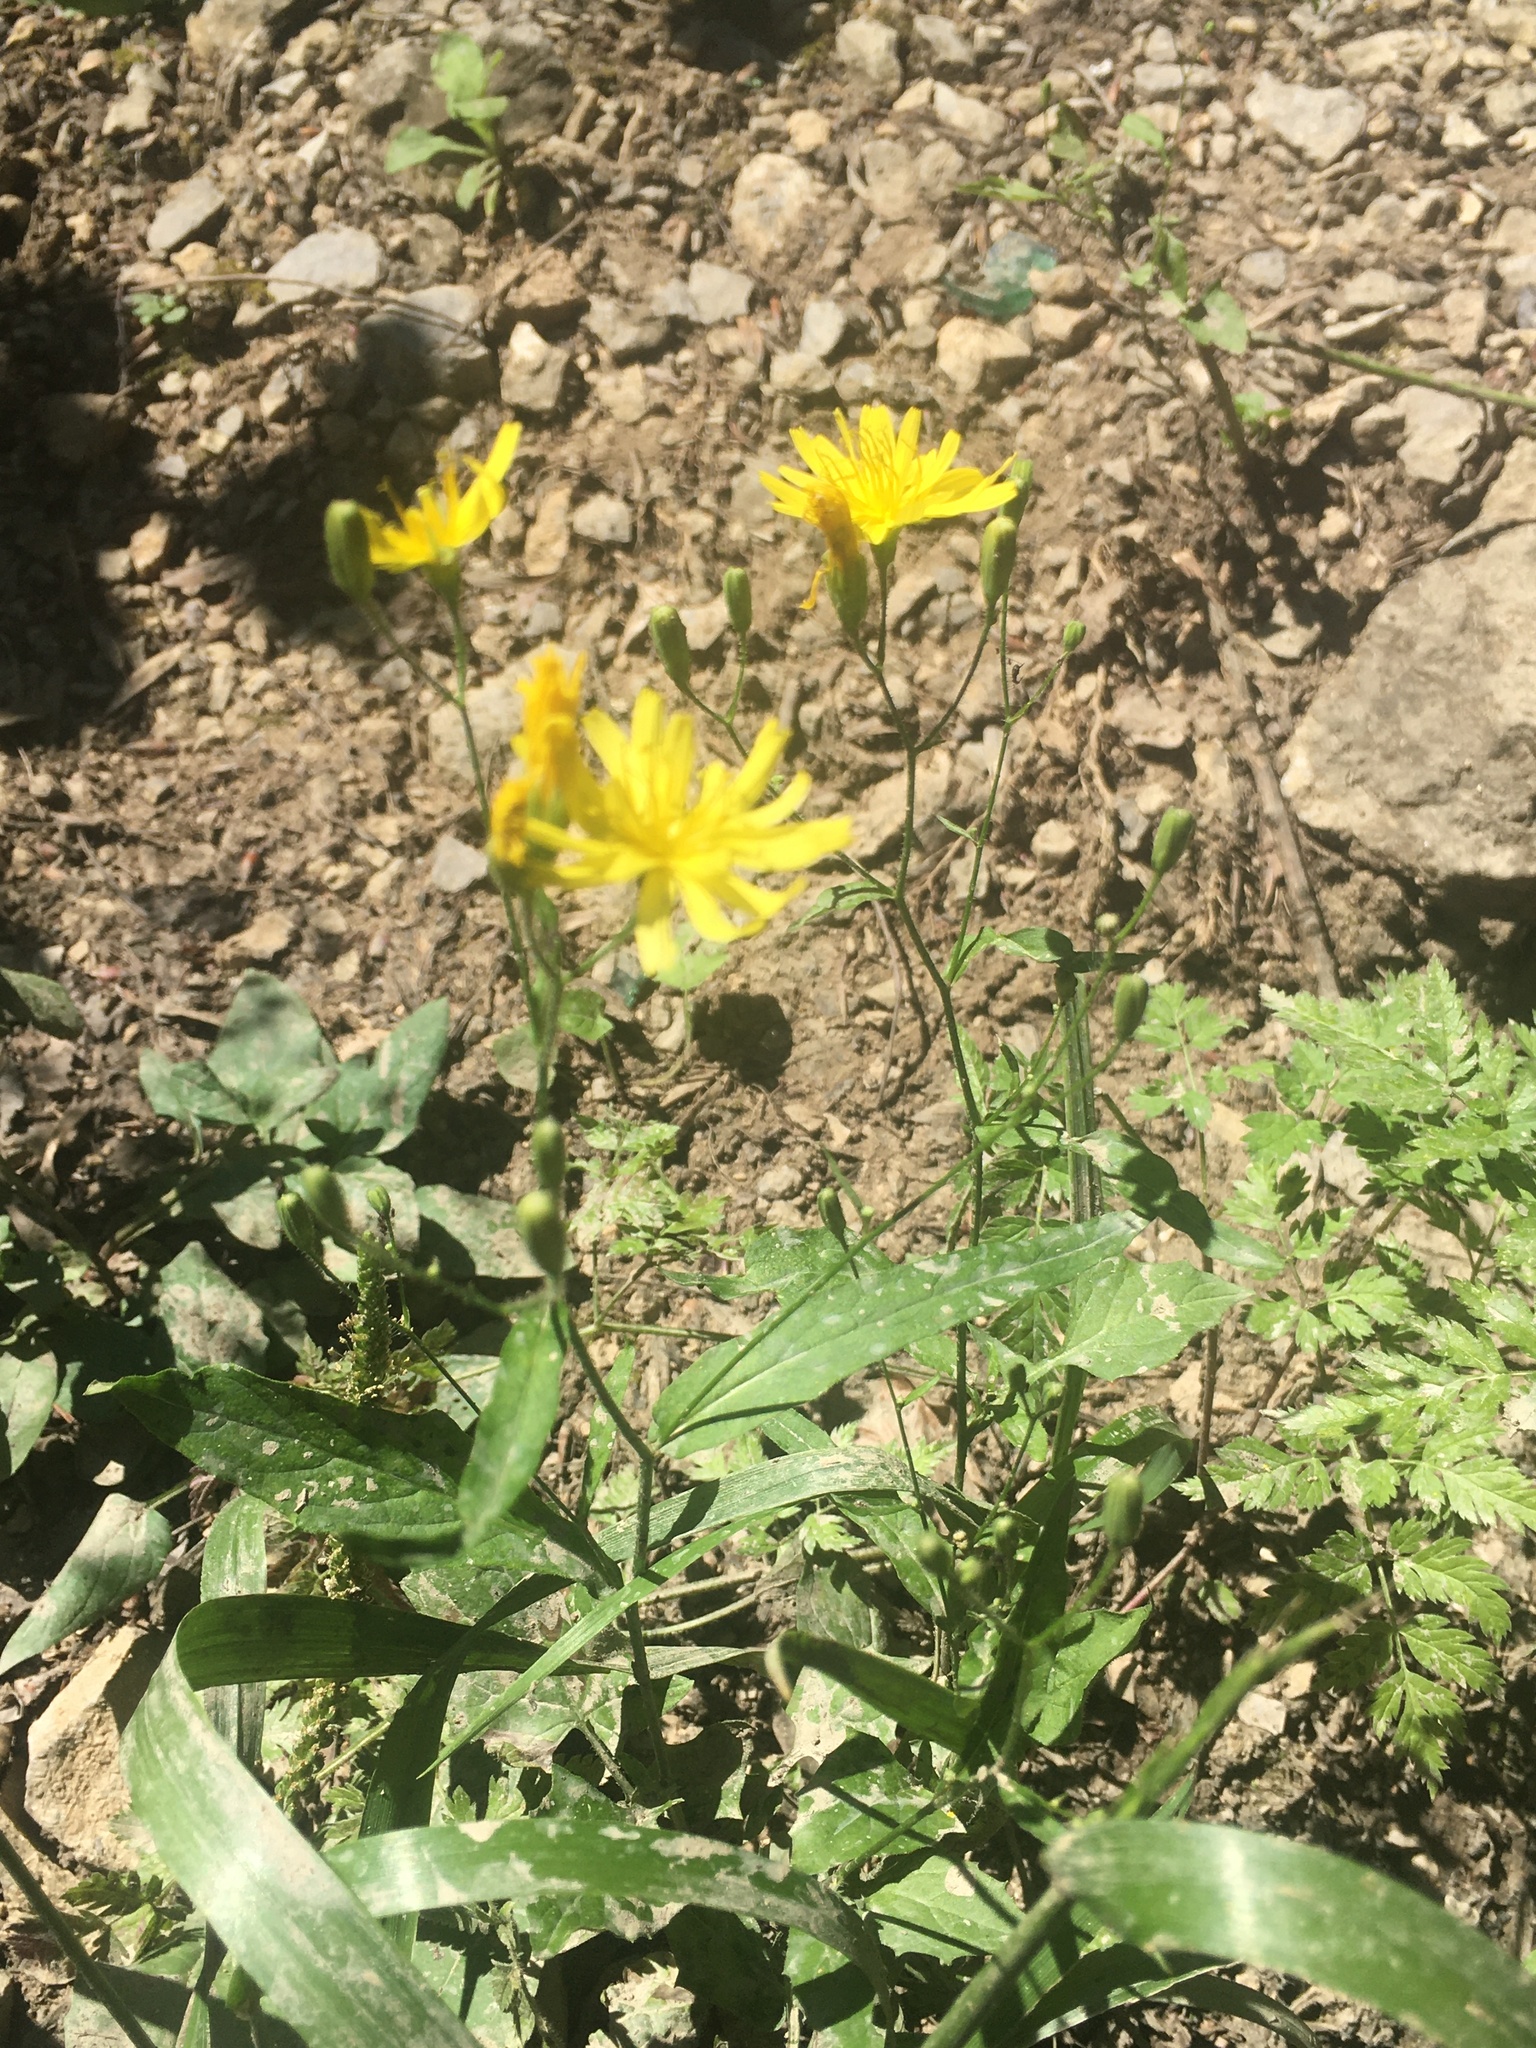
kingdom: Plantae
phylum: Tracheophyta
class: Magnoliopsida
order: Asterales
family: Asteraceae
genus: Lapsana
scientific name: Lapsana communis
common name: Nipplewort
